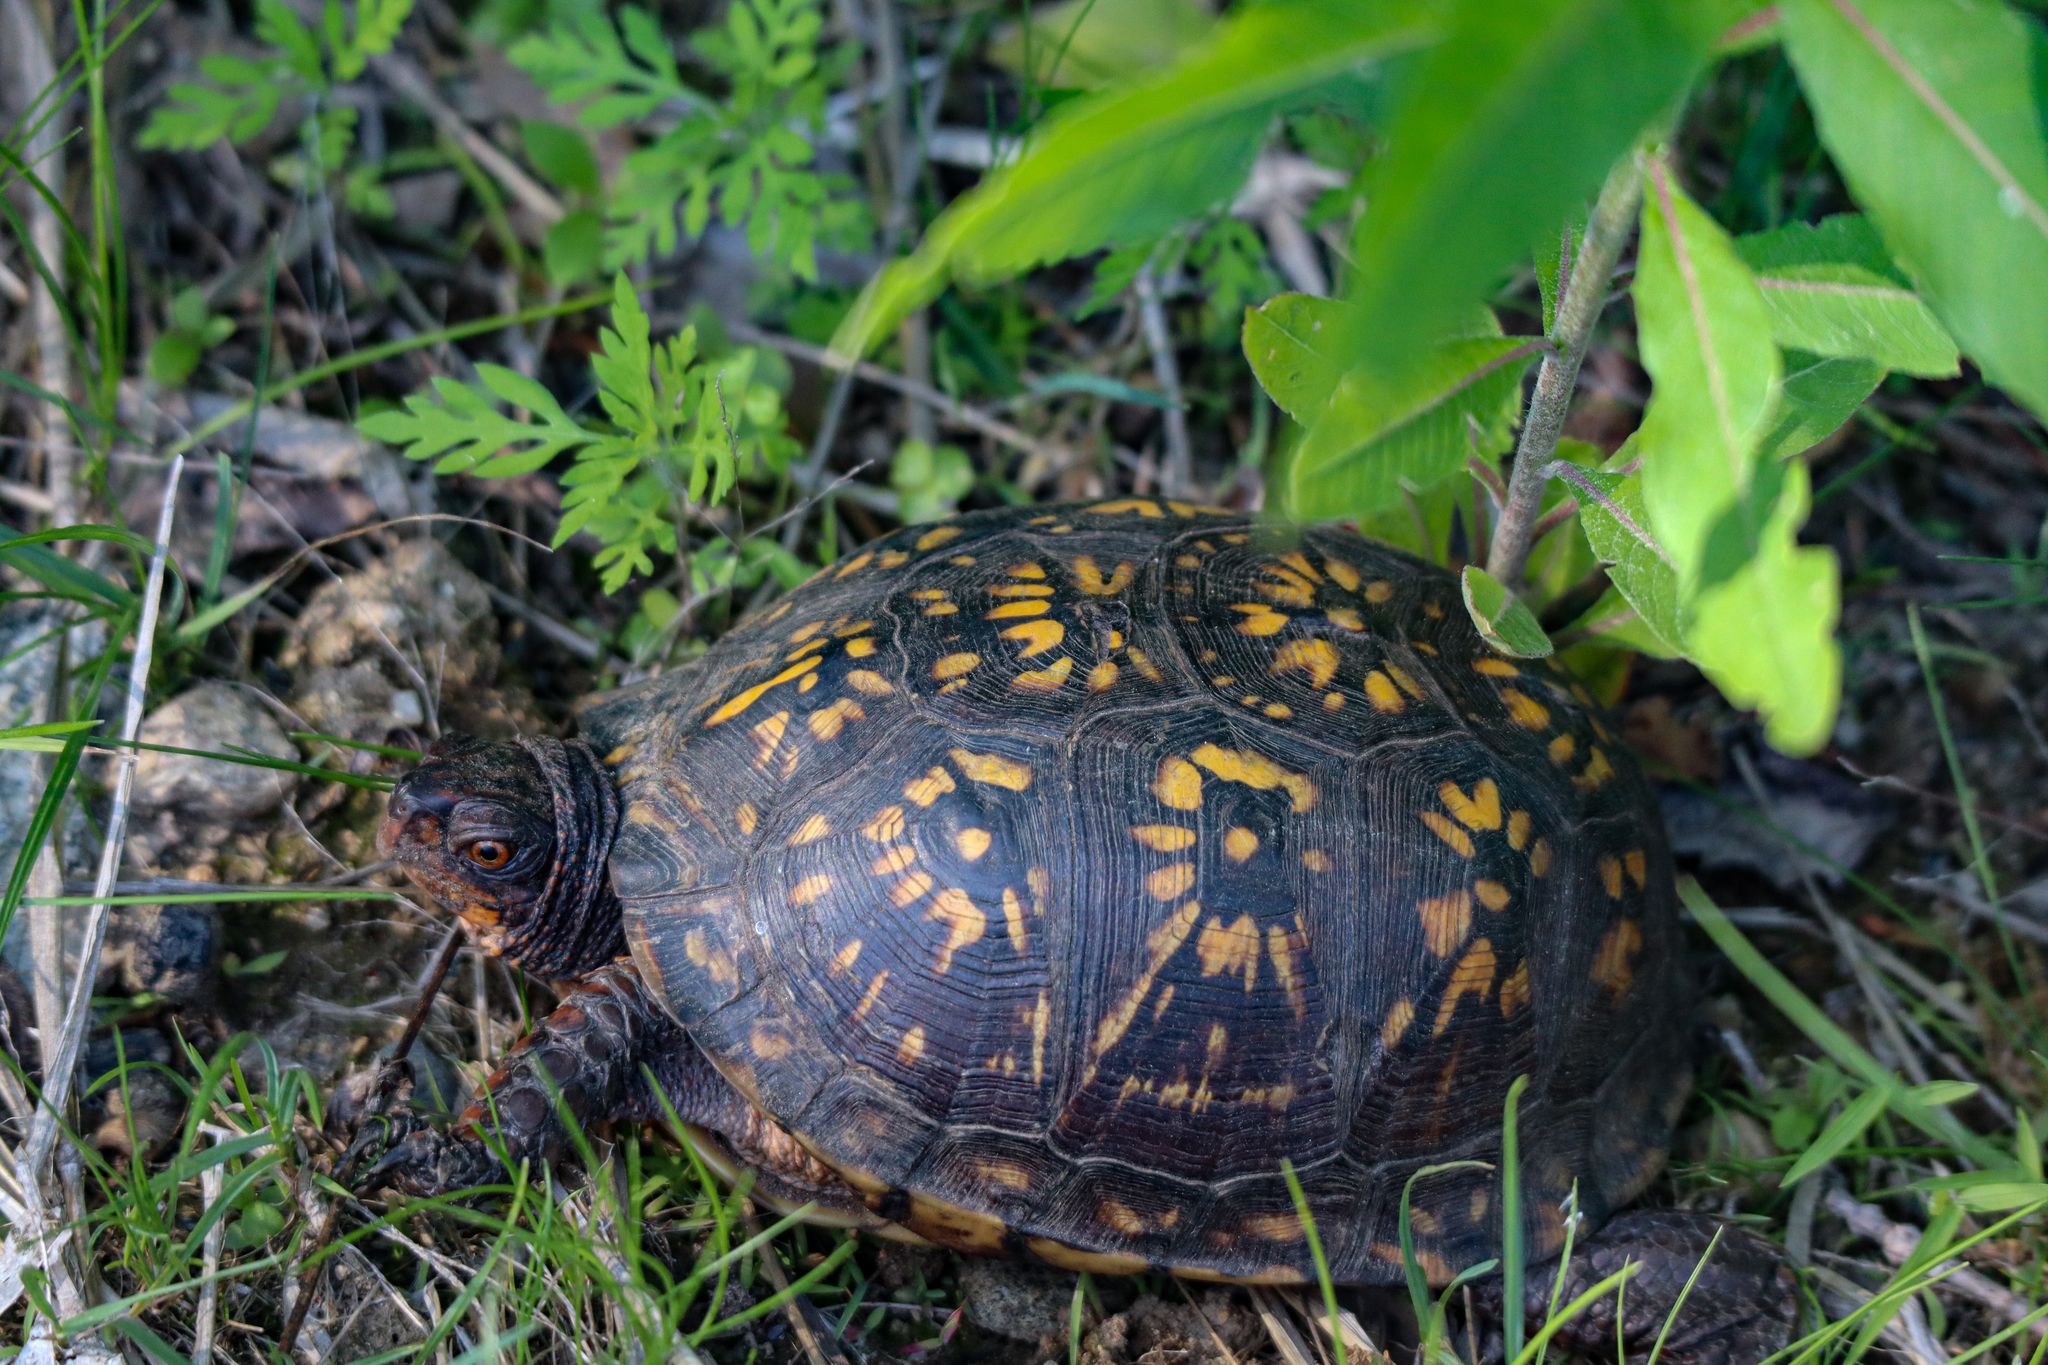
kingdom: Animalia
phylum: Chordata
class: Testudines
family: Emydidae
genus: Terrapene
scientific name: Terrapene carolina
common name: Common box turtle
